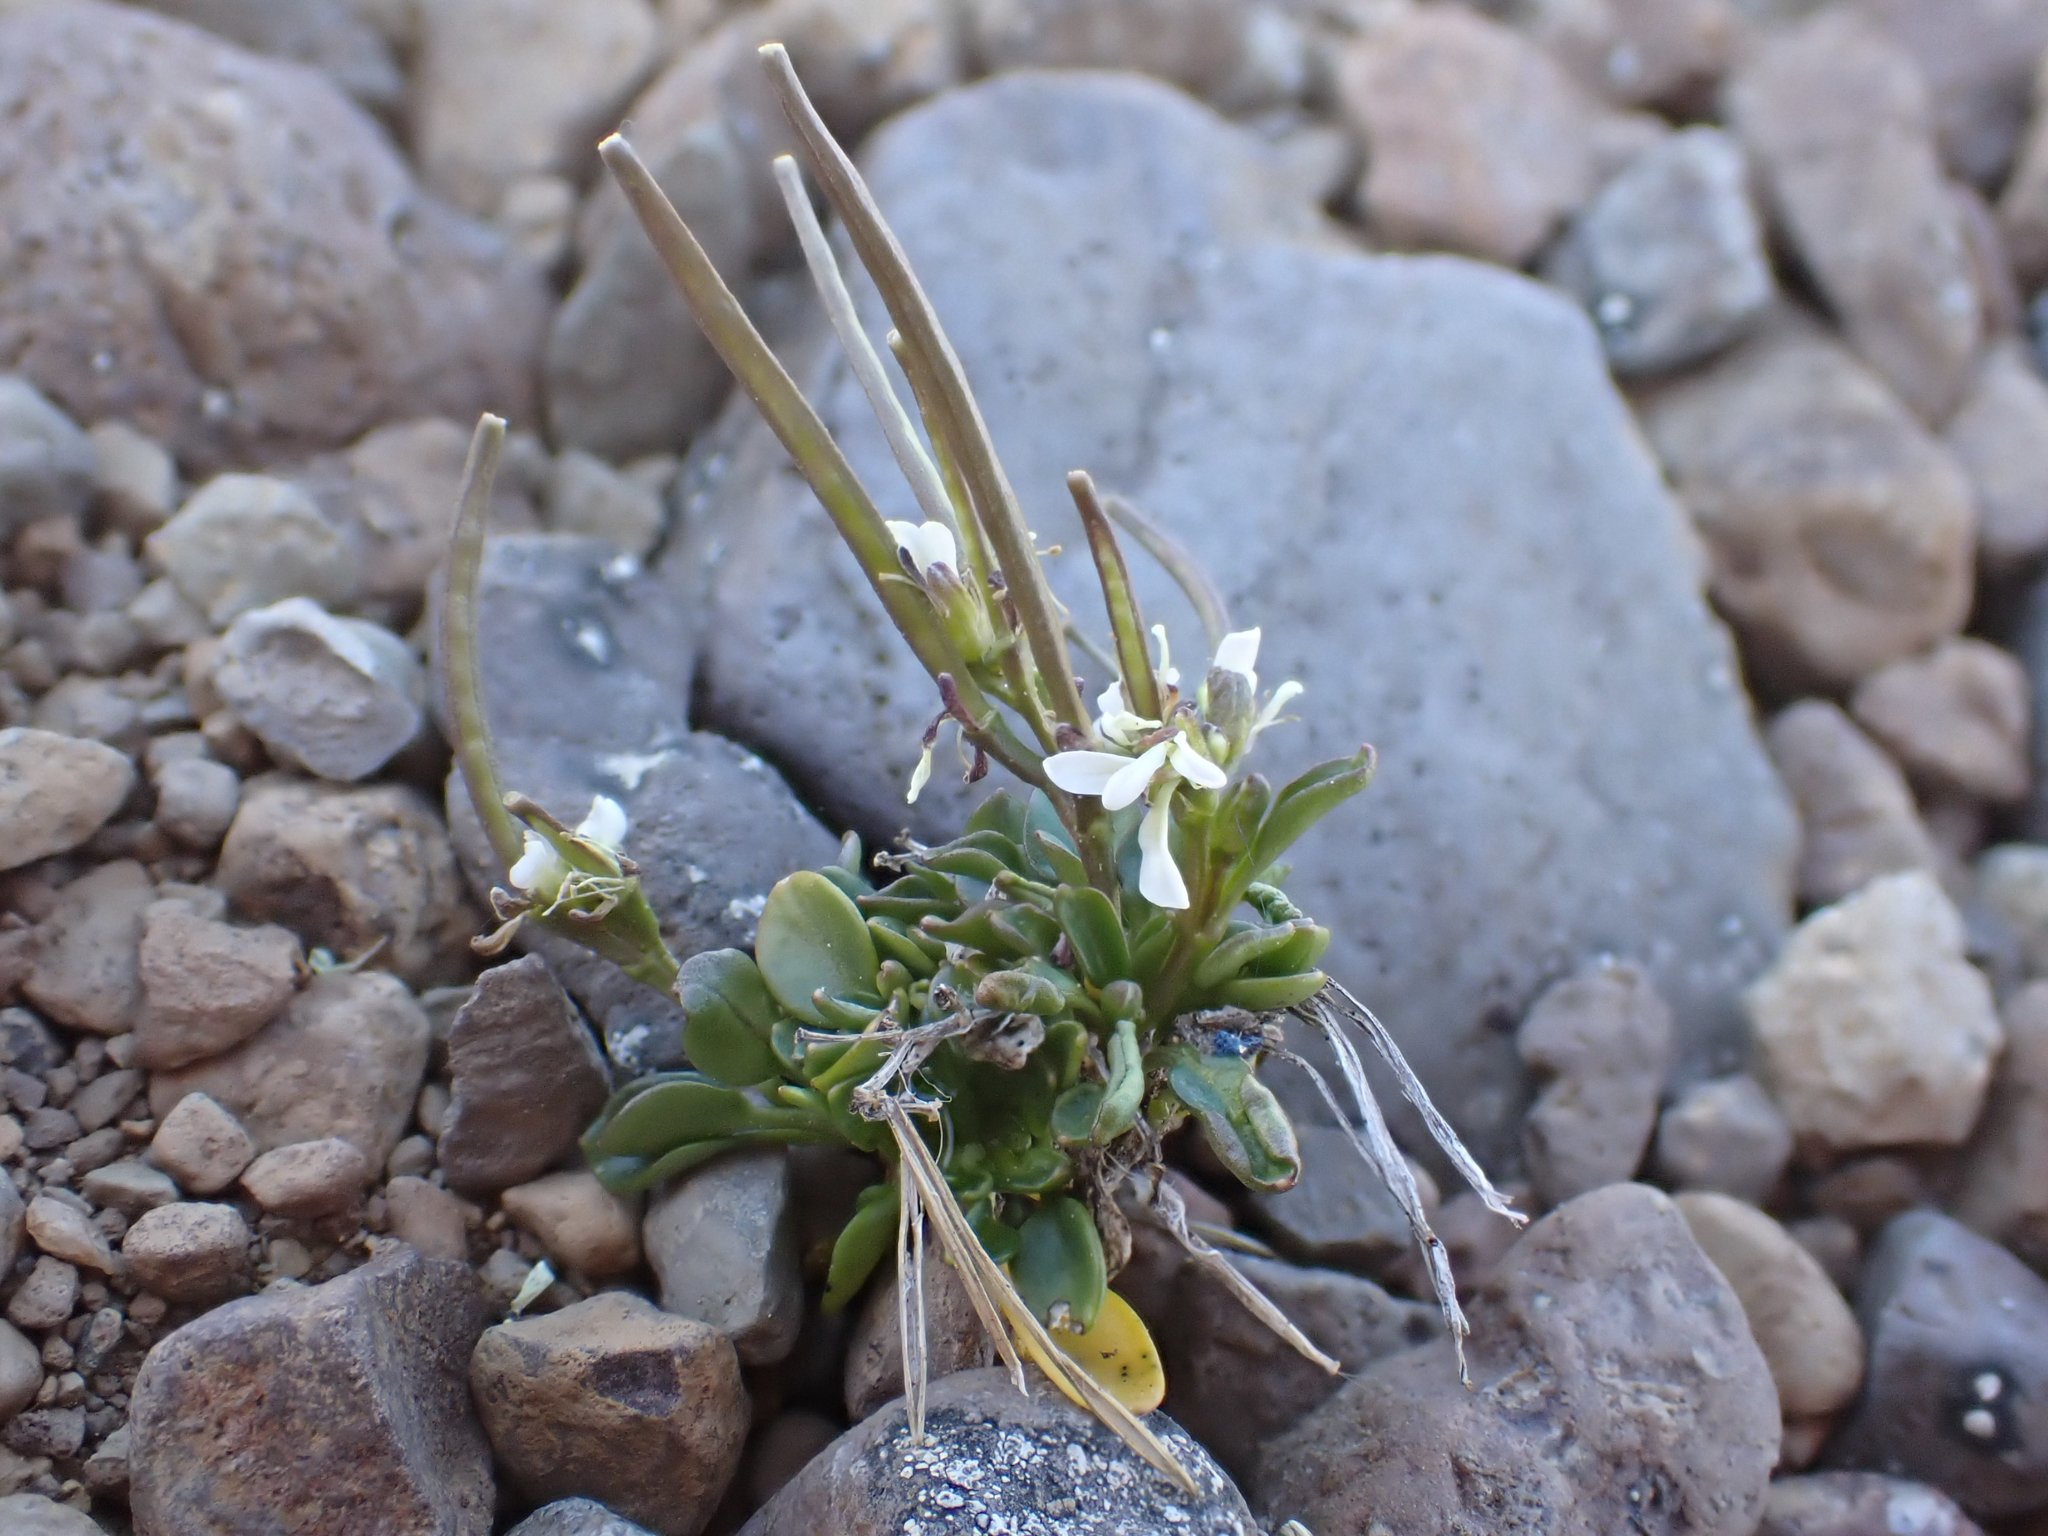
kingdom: Plantae
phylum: Tracheophyta
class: Magnoliopsida
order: Brassicales
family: Brassicaceae
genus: Cardamine
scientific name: Cardamine bellidifolia
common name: Alpine bittercress
